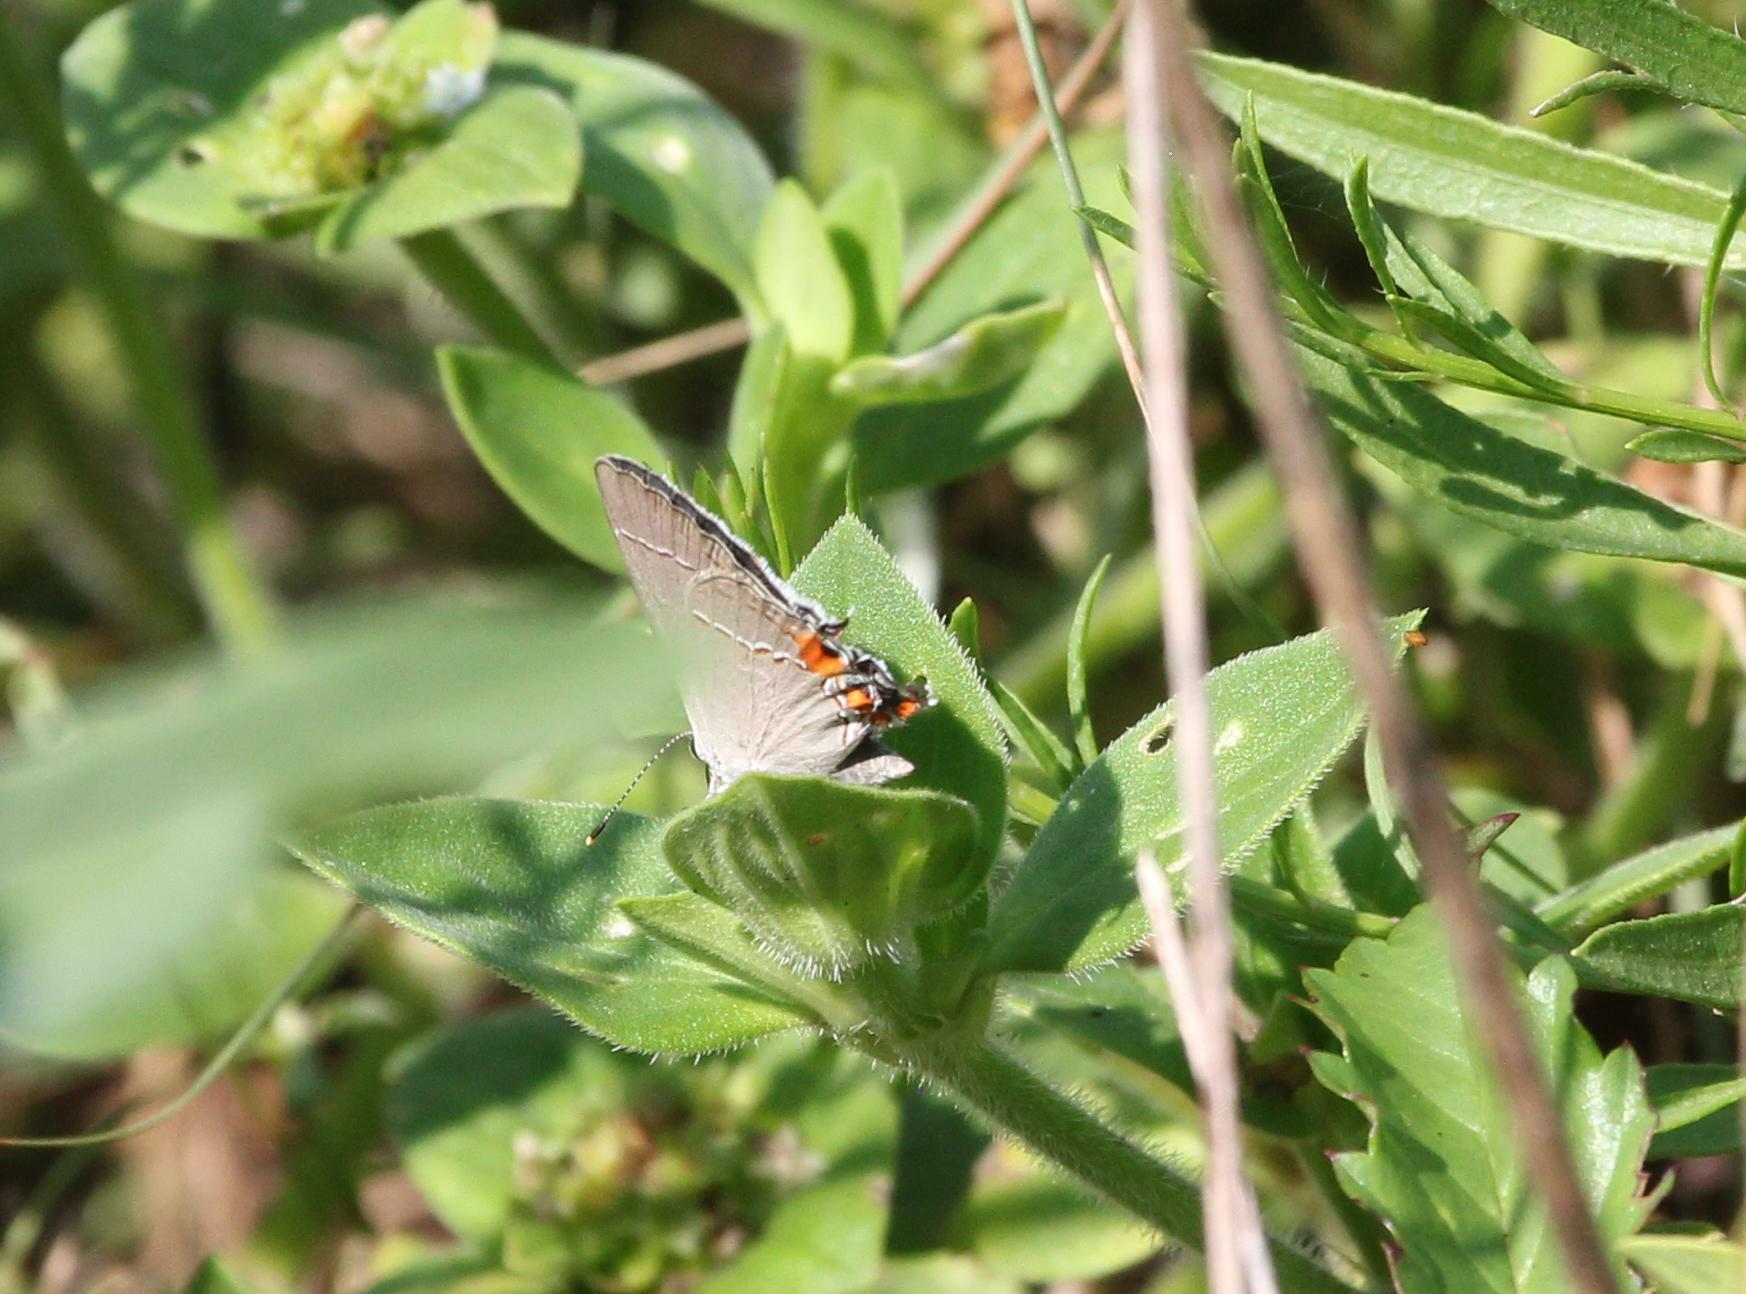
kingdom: Animalia
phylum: Arthropoda
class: Insecta
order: Lepidoptera
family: Lycaenidae
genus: Strymon
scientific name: Strymon melinus
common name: Gray hairstreak
